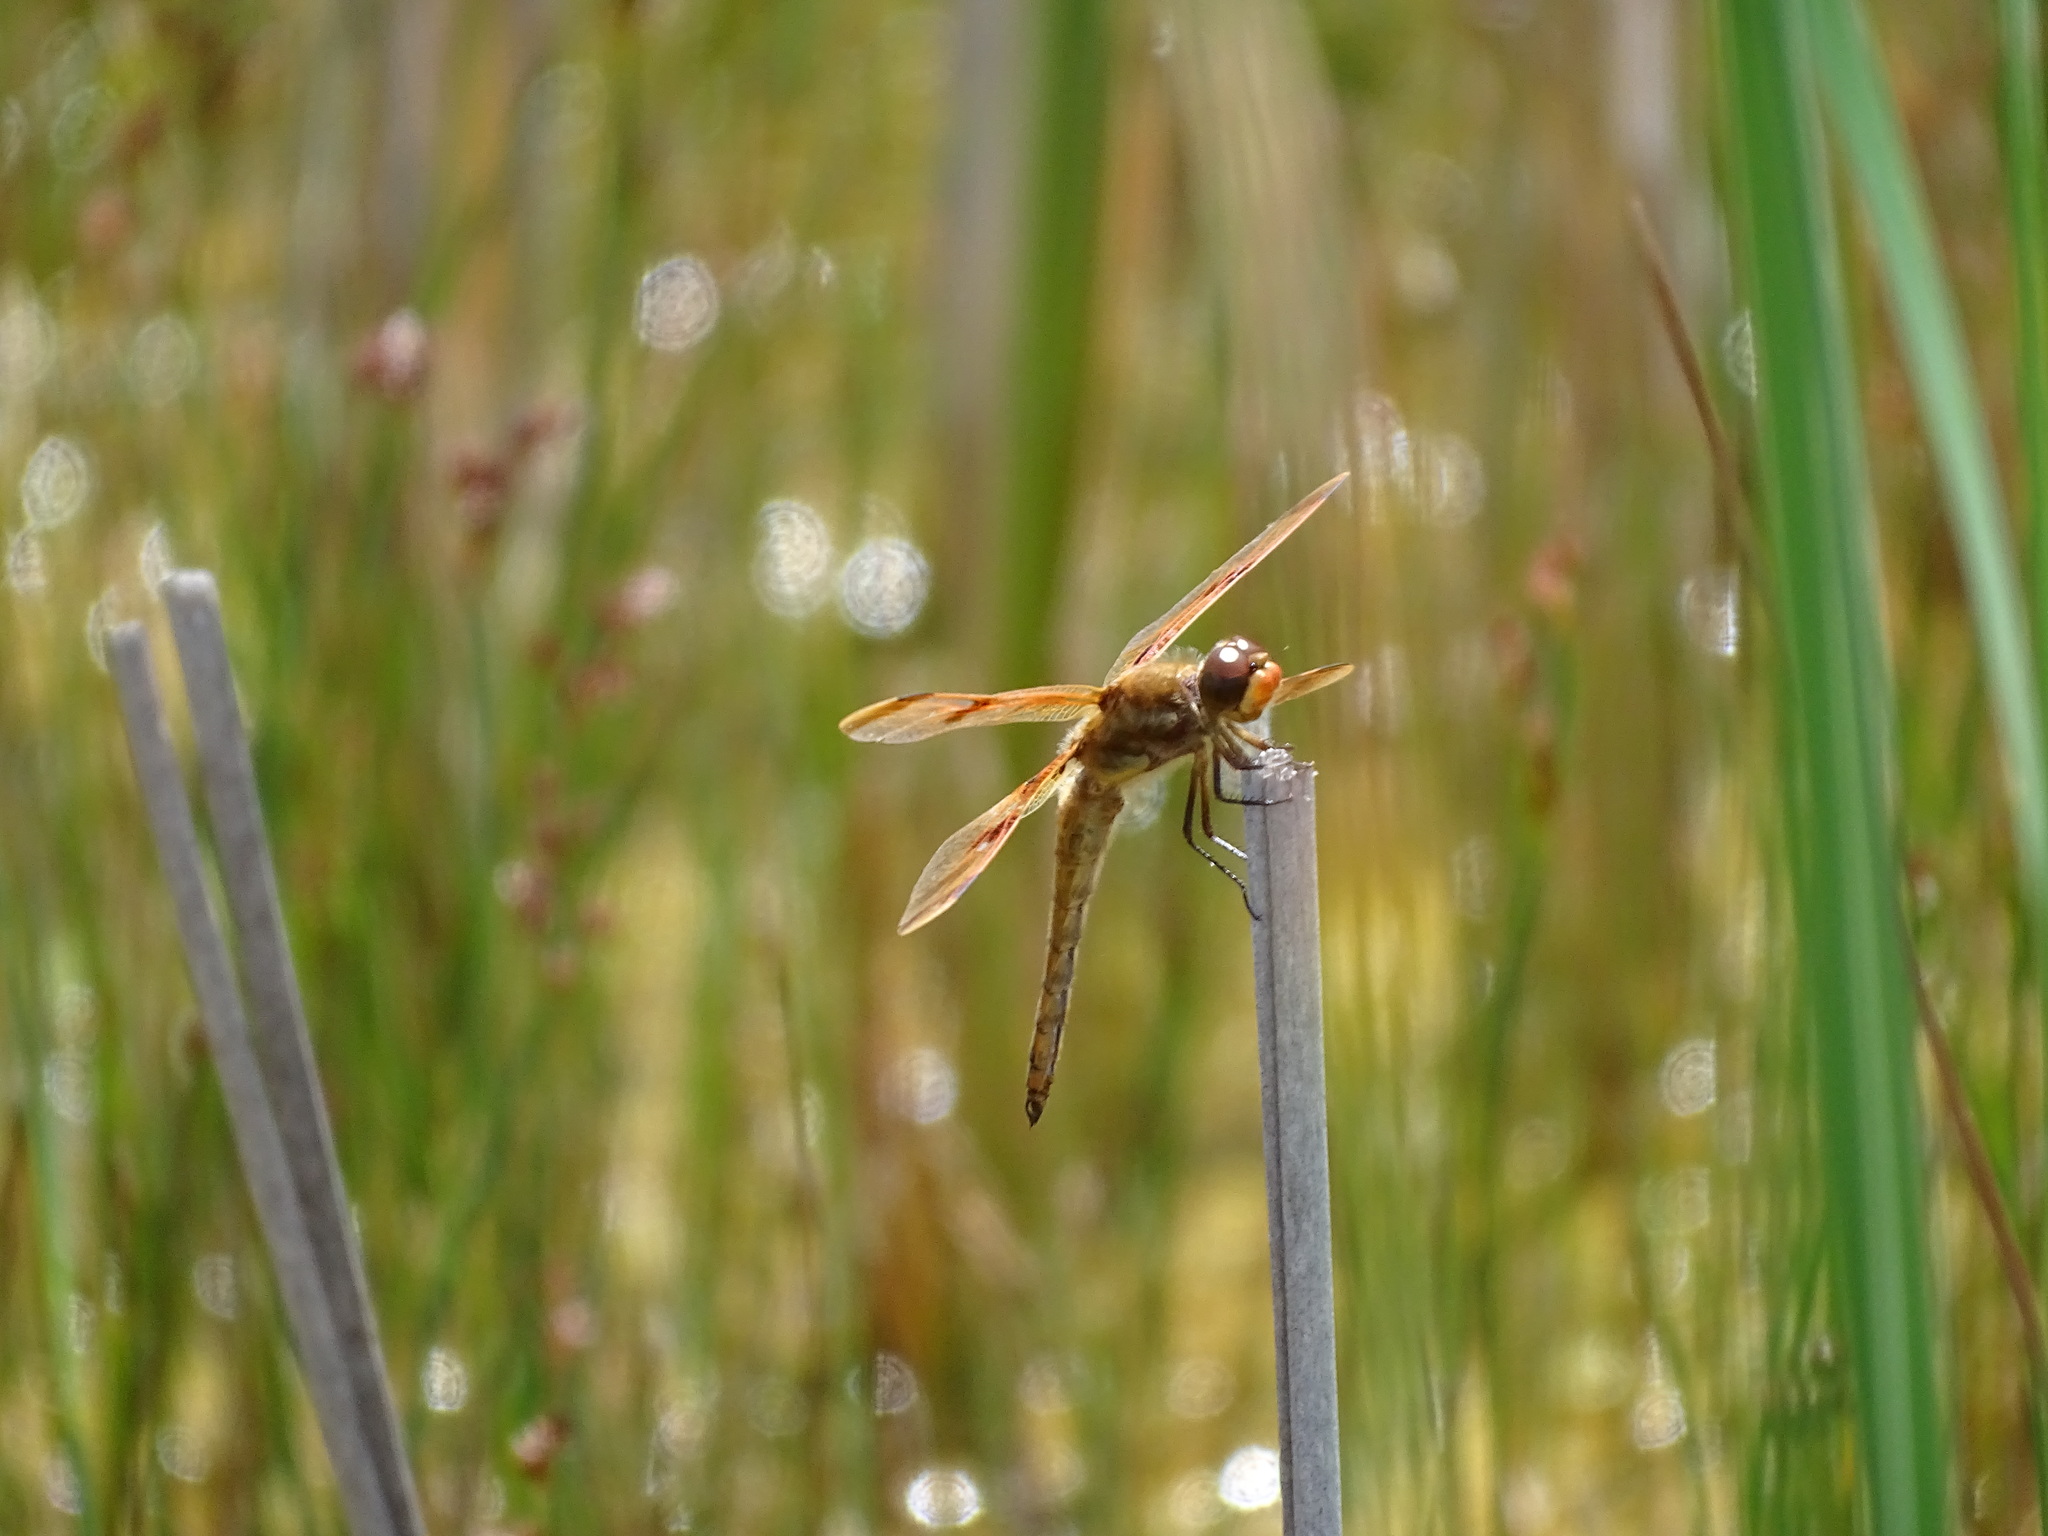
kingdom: Animalia
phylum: Arthropoda
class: Insecta
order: Odonata
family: Libellulidae
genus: Libellula
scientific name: Libellula semifasciata
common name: Painted skimmer
